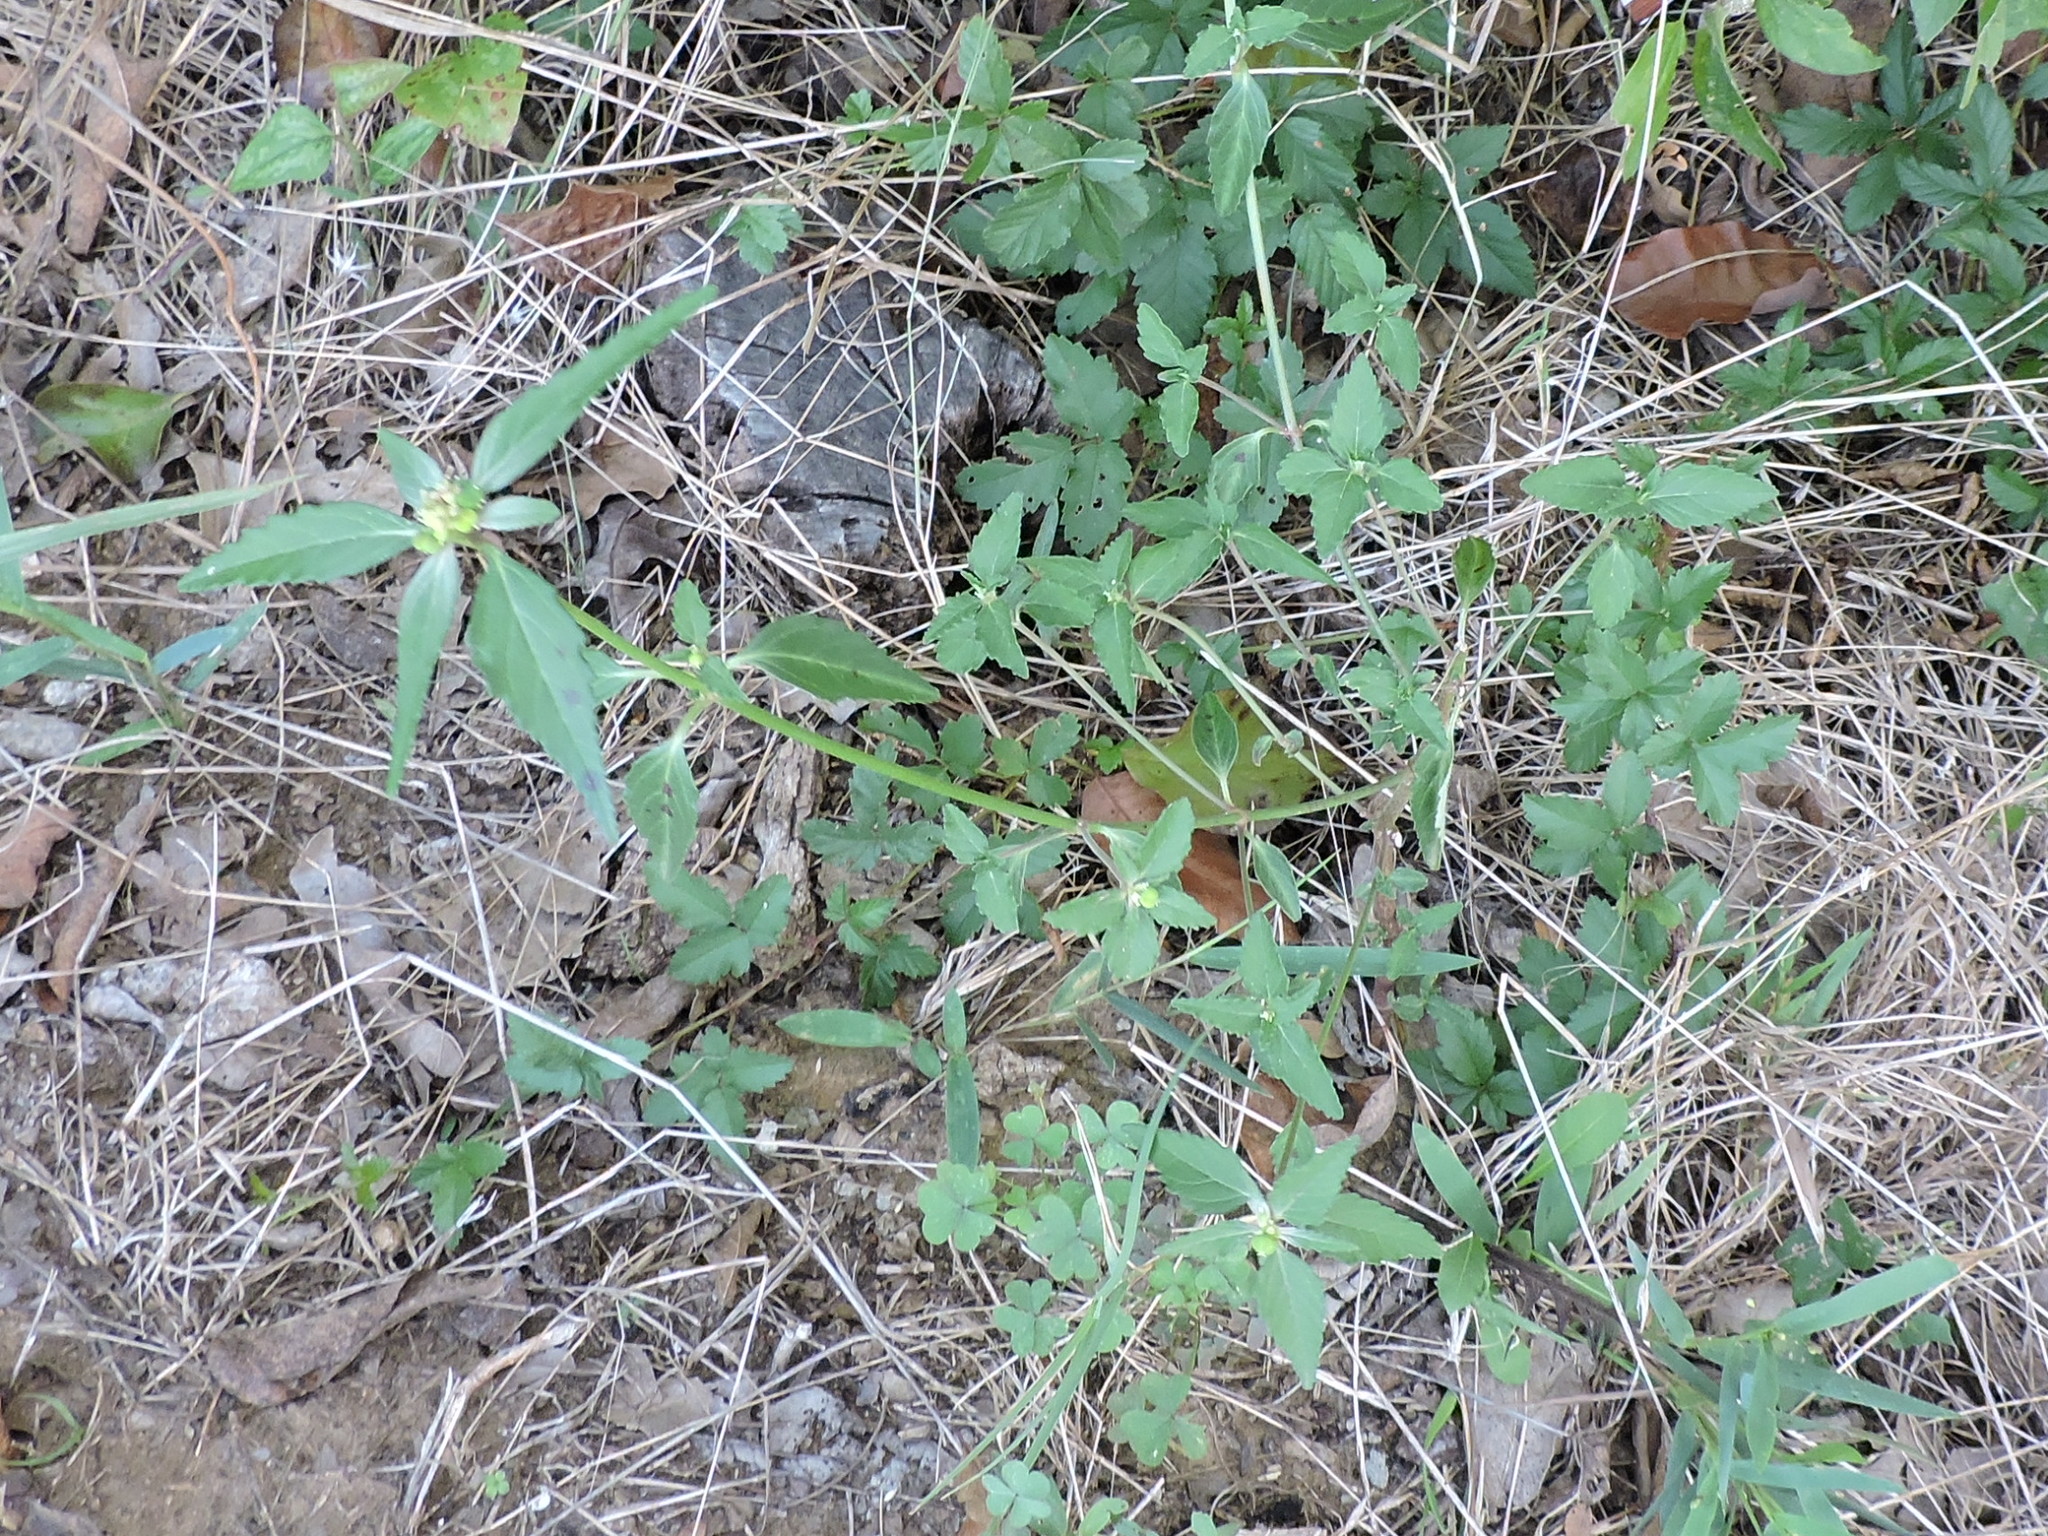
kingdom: Plantae
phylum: Tracheophyta
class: Magnoliopsida
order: Malpighiales
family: Euphorbiaceae
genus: Euphorbia
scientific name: Euphorbia dentata
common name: Dentate spurge
